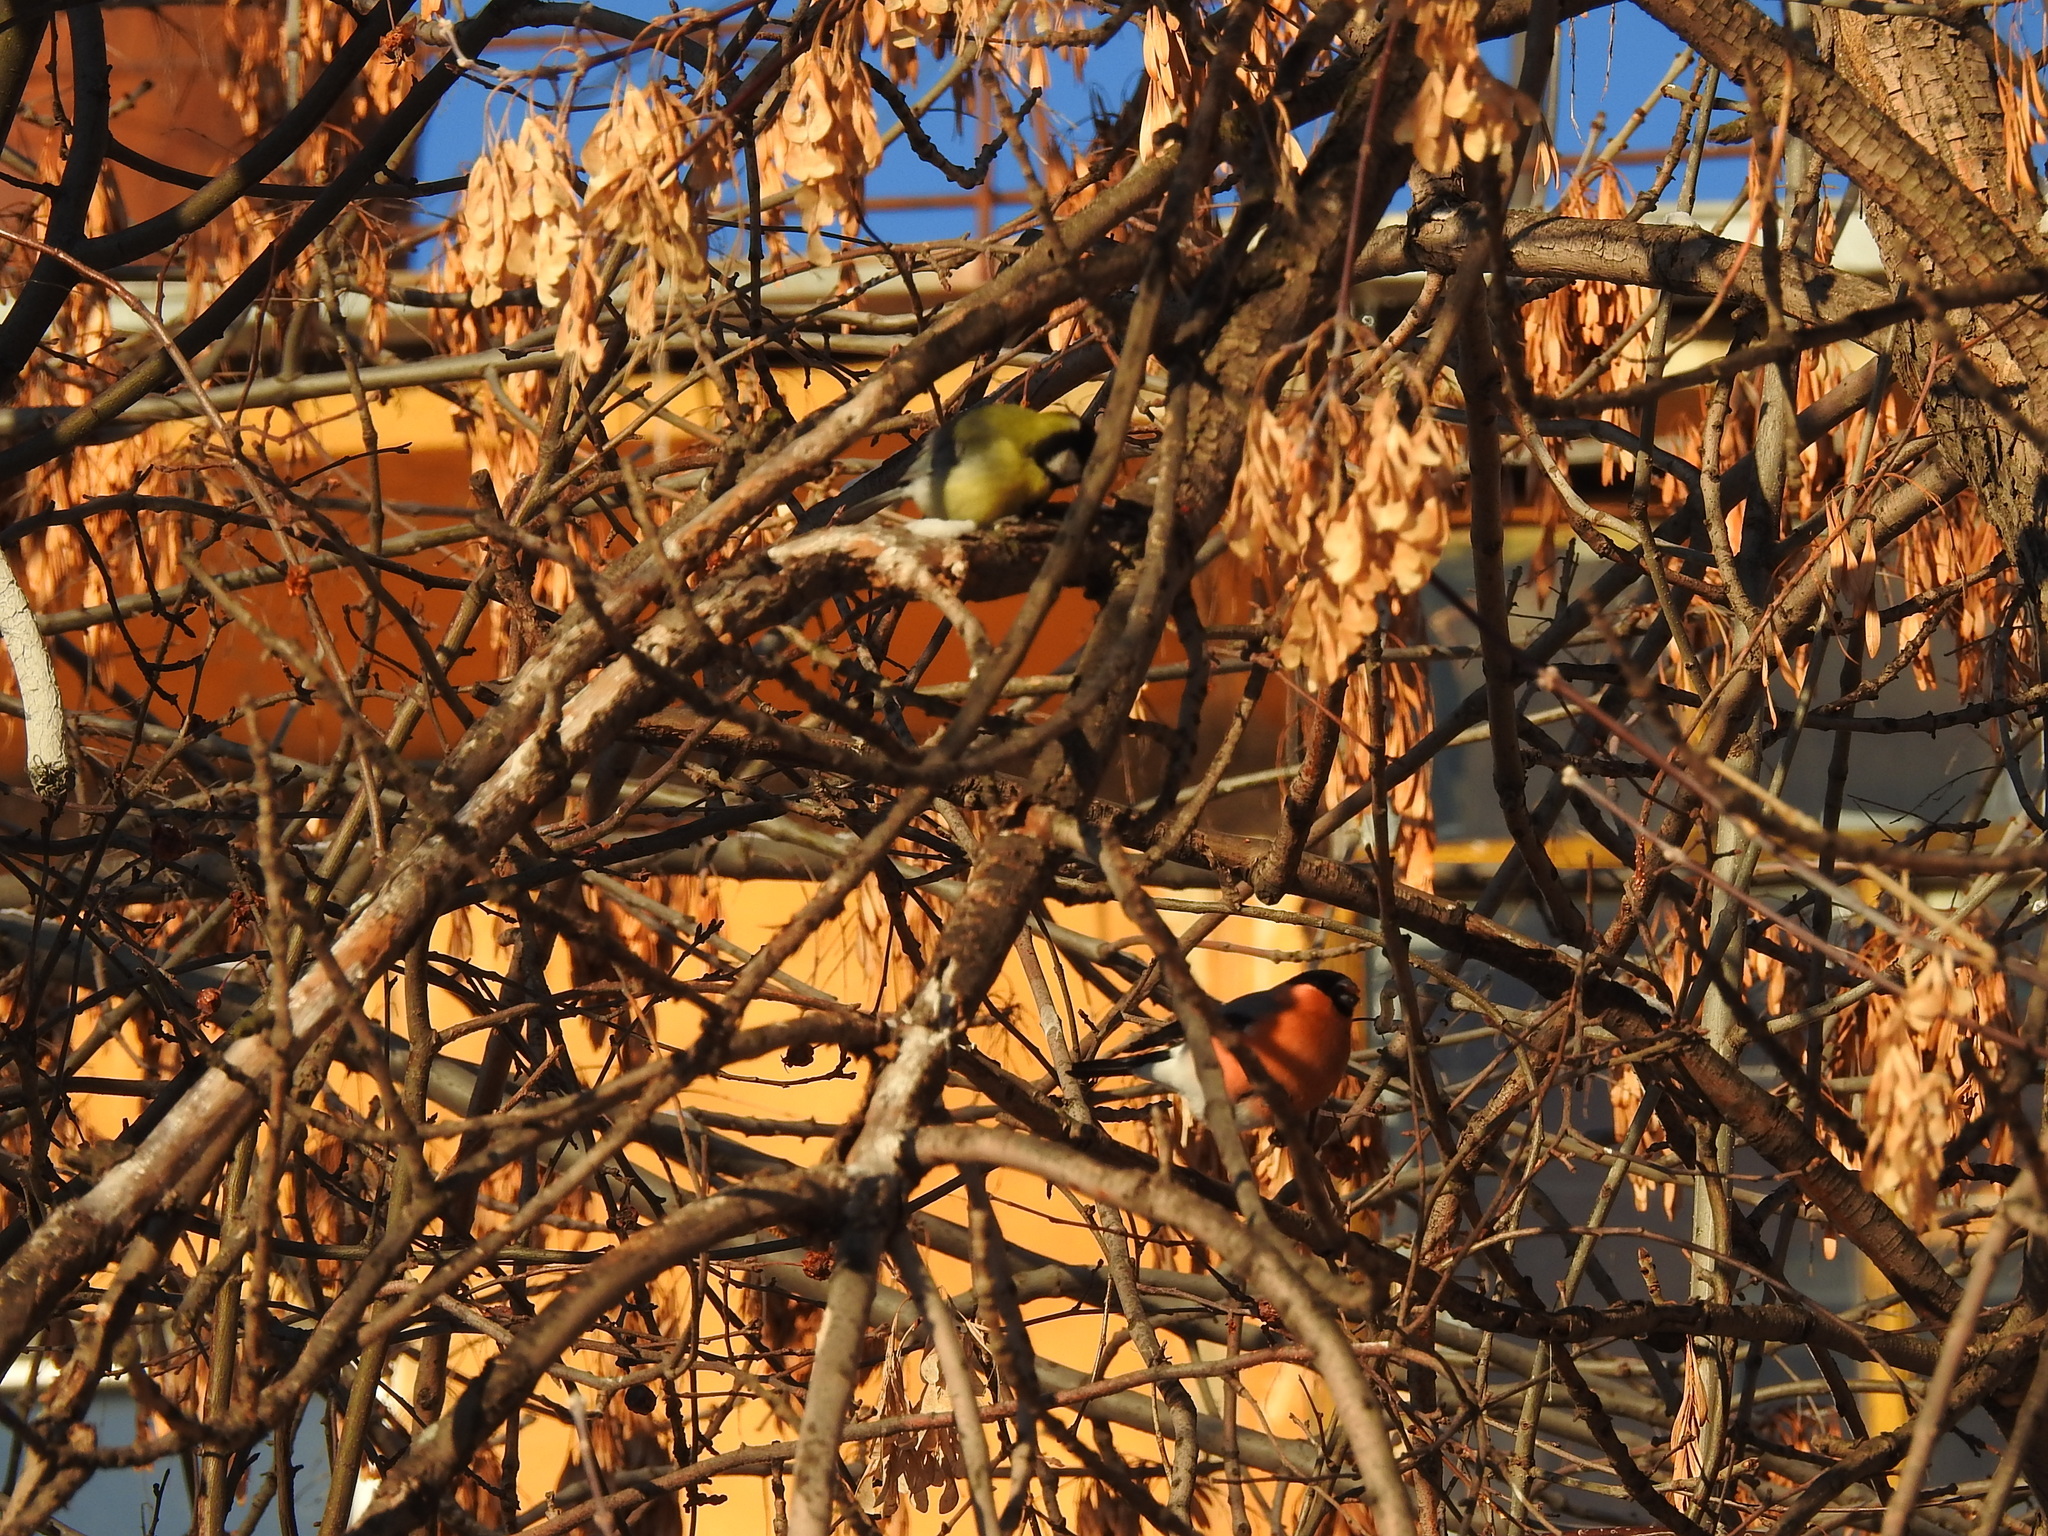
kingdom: Animalia
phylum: Chordata
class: Aves
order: Passeriformes
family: Fringillidae
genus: Pyrrhula
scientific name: Pyrrhula pyrrhula
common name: Eurasian bullfinch
